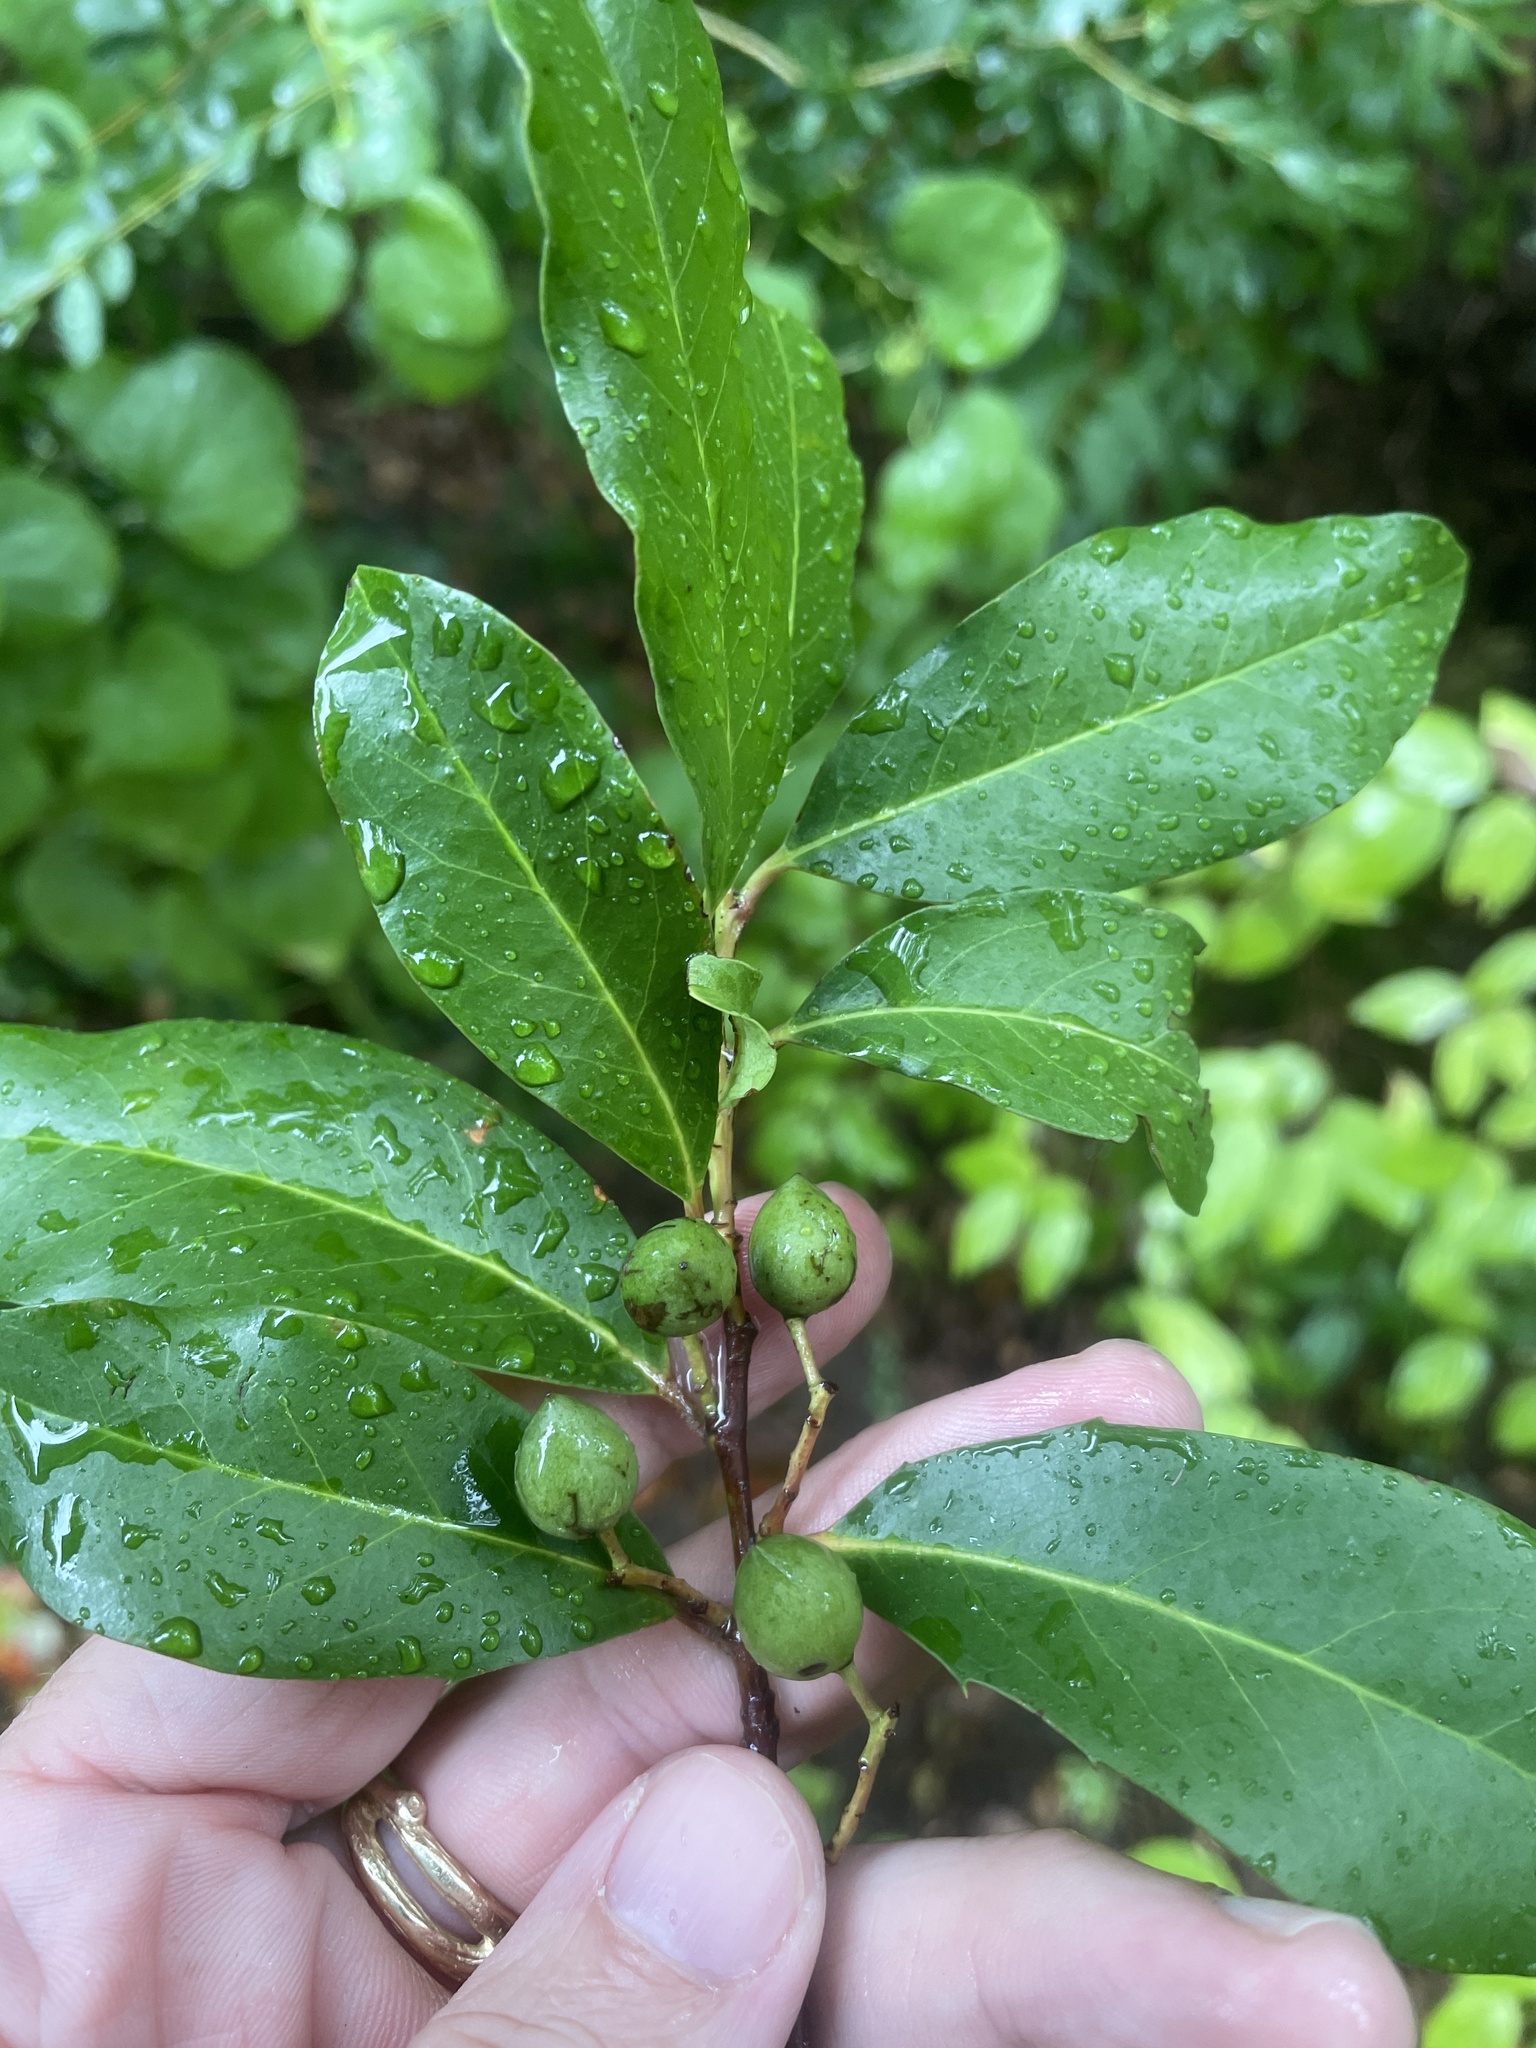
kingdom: Plantae
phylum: Tracheophyta
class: Magnoliopsida
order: Rosales
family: Rosaceae
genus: Prunus
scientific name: Prunus caroliniana
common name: Carolina laurel cherry
